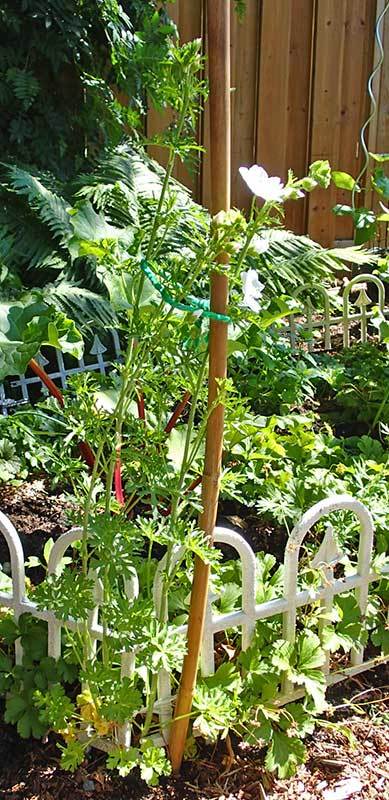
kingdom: Plantae
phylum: Tracheophyta
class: Magnoliopsida
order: Malvales
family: Malvaceae
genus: Malva
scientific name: Malva moschata
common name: Musk mallow
